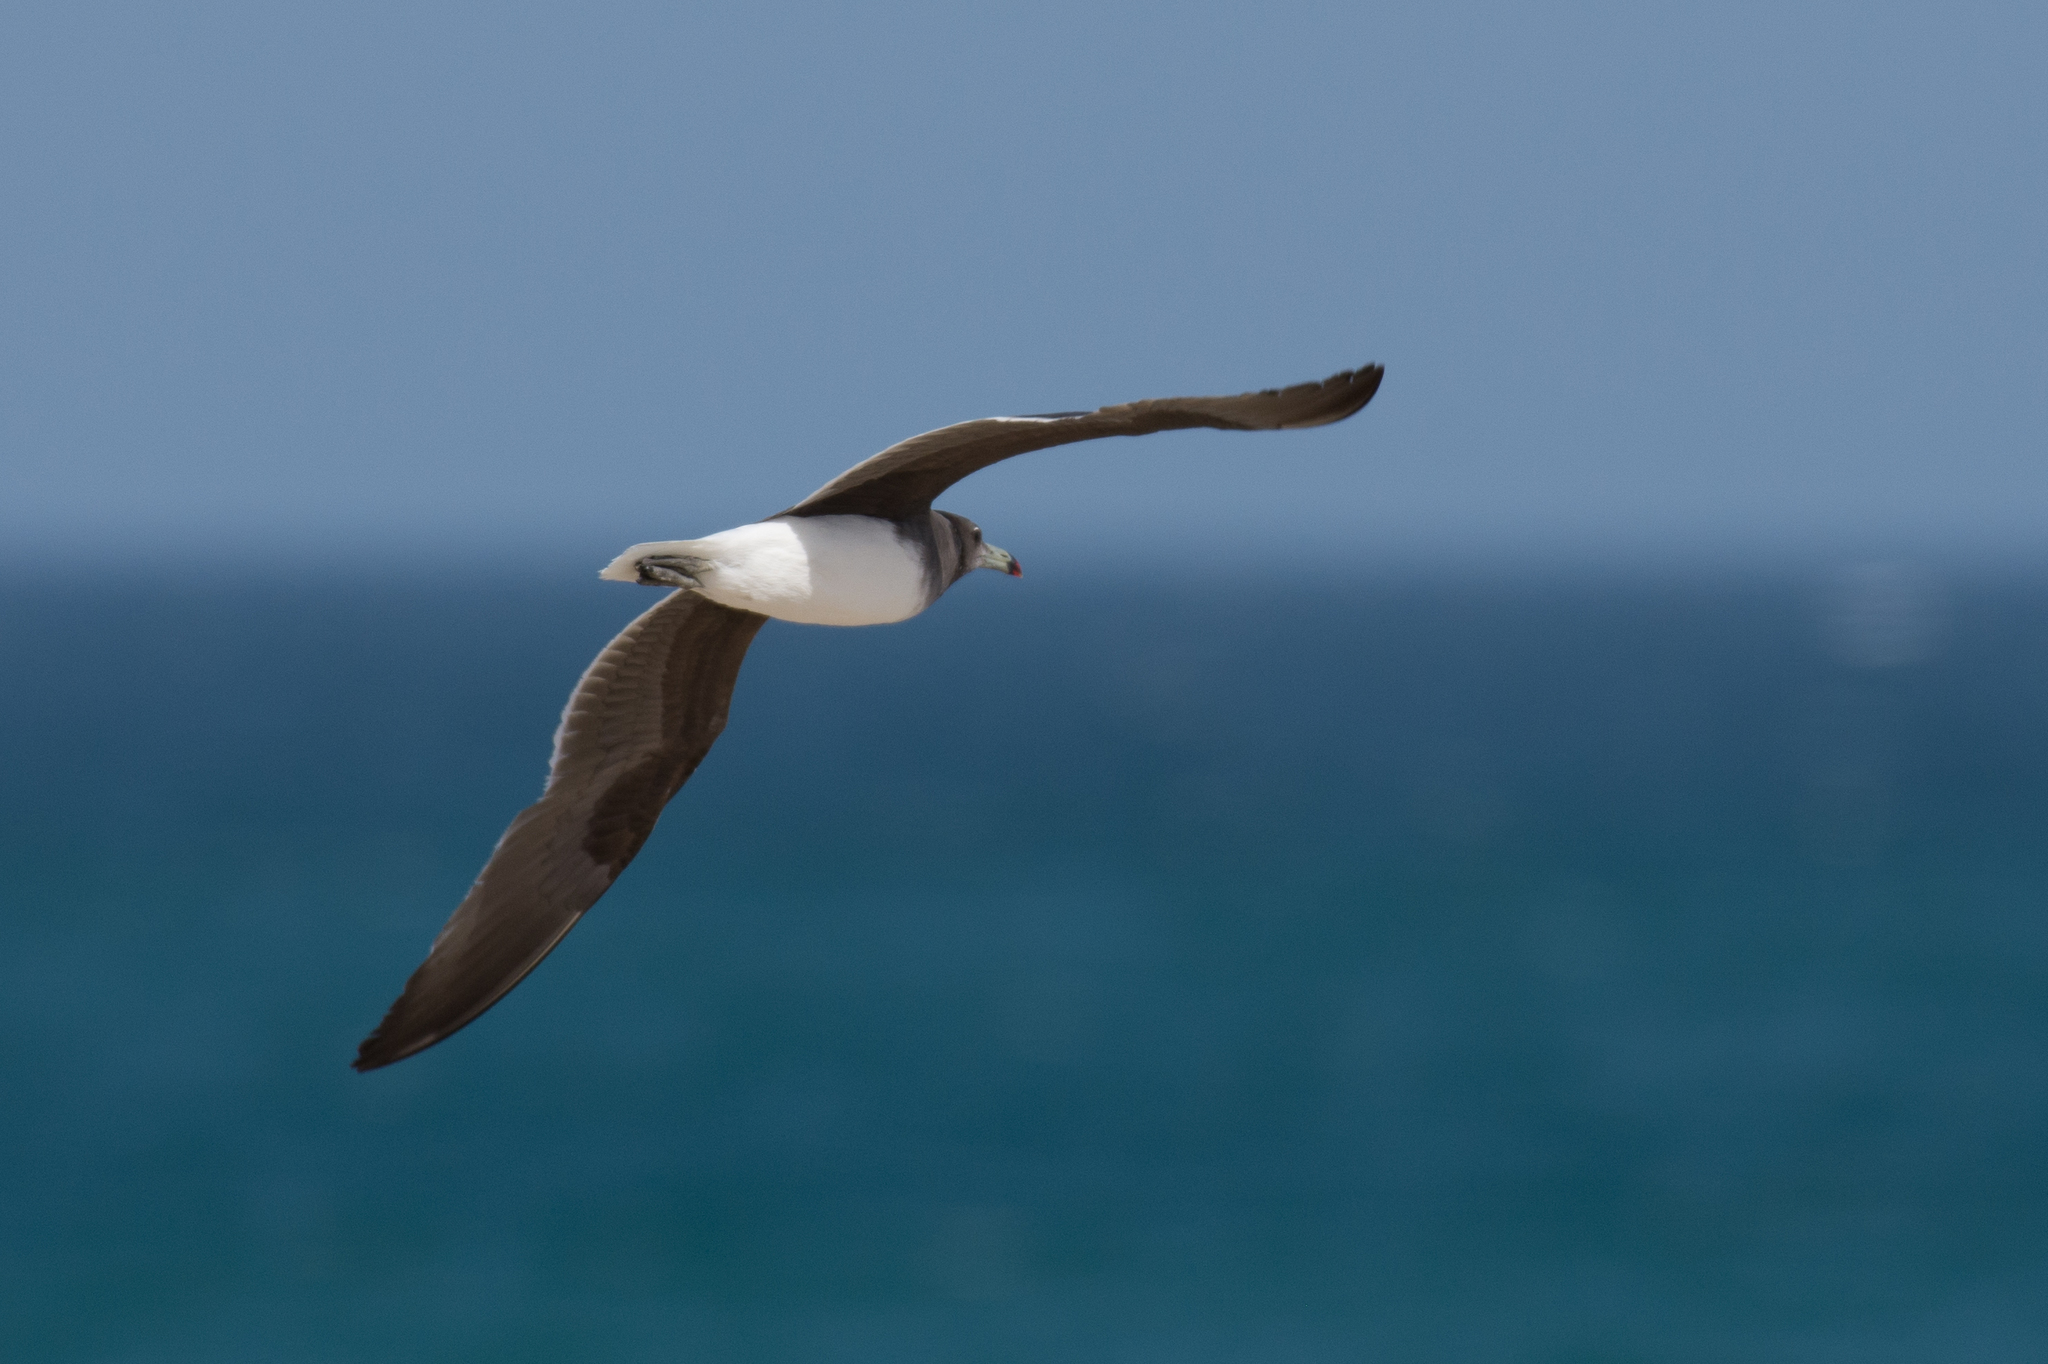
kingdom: Animalia
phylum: Chordata
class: Aves
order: Charadriiformes
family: Laridae
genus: Ichthyaetus
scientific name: Ichthyaetus hemprichii
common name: Sooty gull
